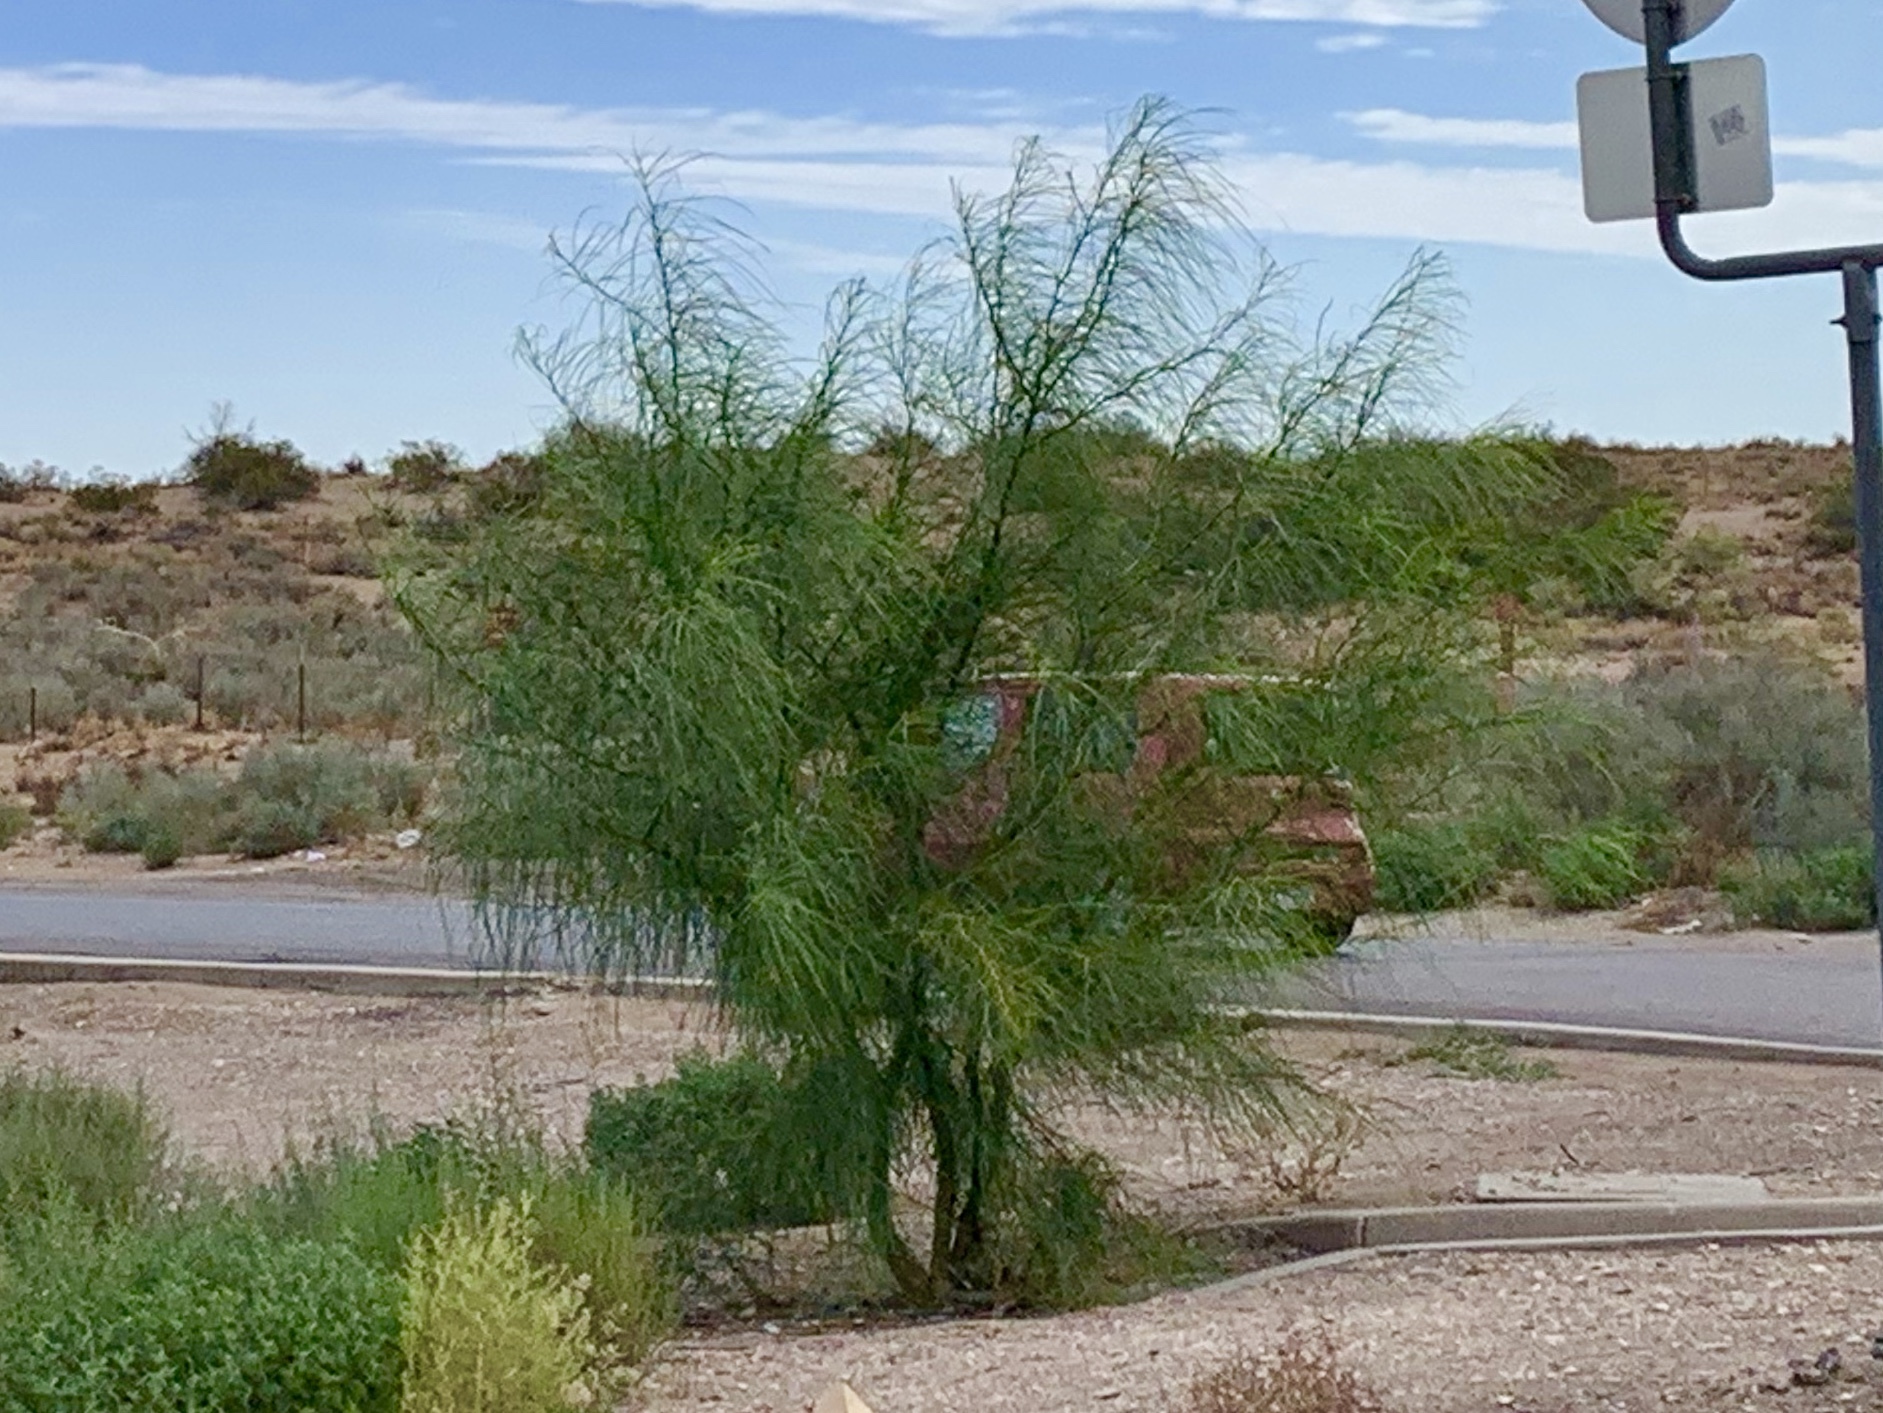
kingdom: Plantae
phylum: Tracheophyta
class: Magnoliopsida
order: Fabales
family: Fabaceae
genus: Parkinsonia
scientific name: Parkinsonia aculeata
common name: Jerusalem thorn
